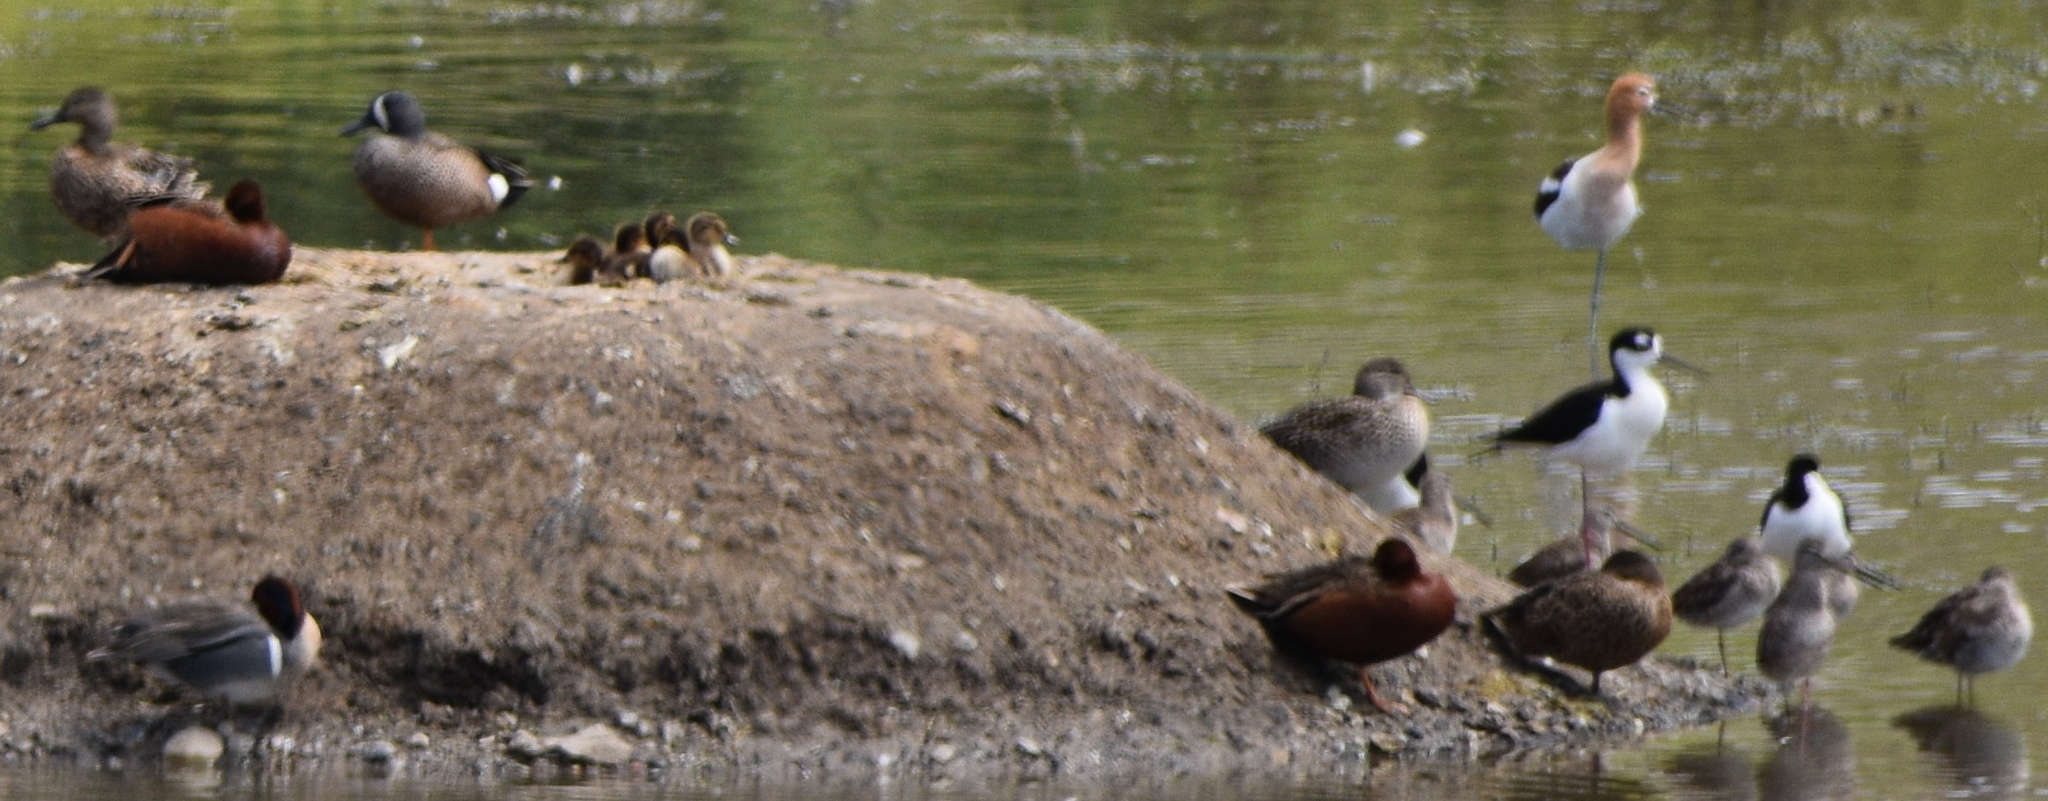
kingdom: Animalia
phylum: Chordata
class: Aves
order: Anseriformes
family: Anatidae
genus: Spatula
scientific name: Spatula cyanoptera
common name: Cinnamon teal
